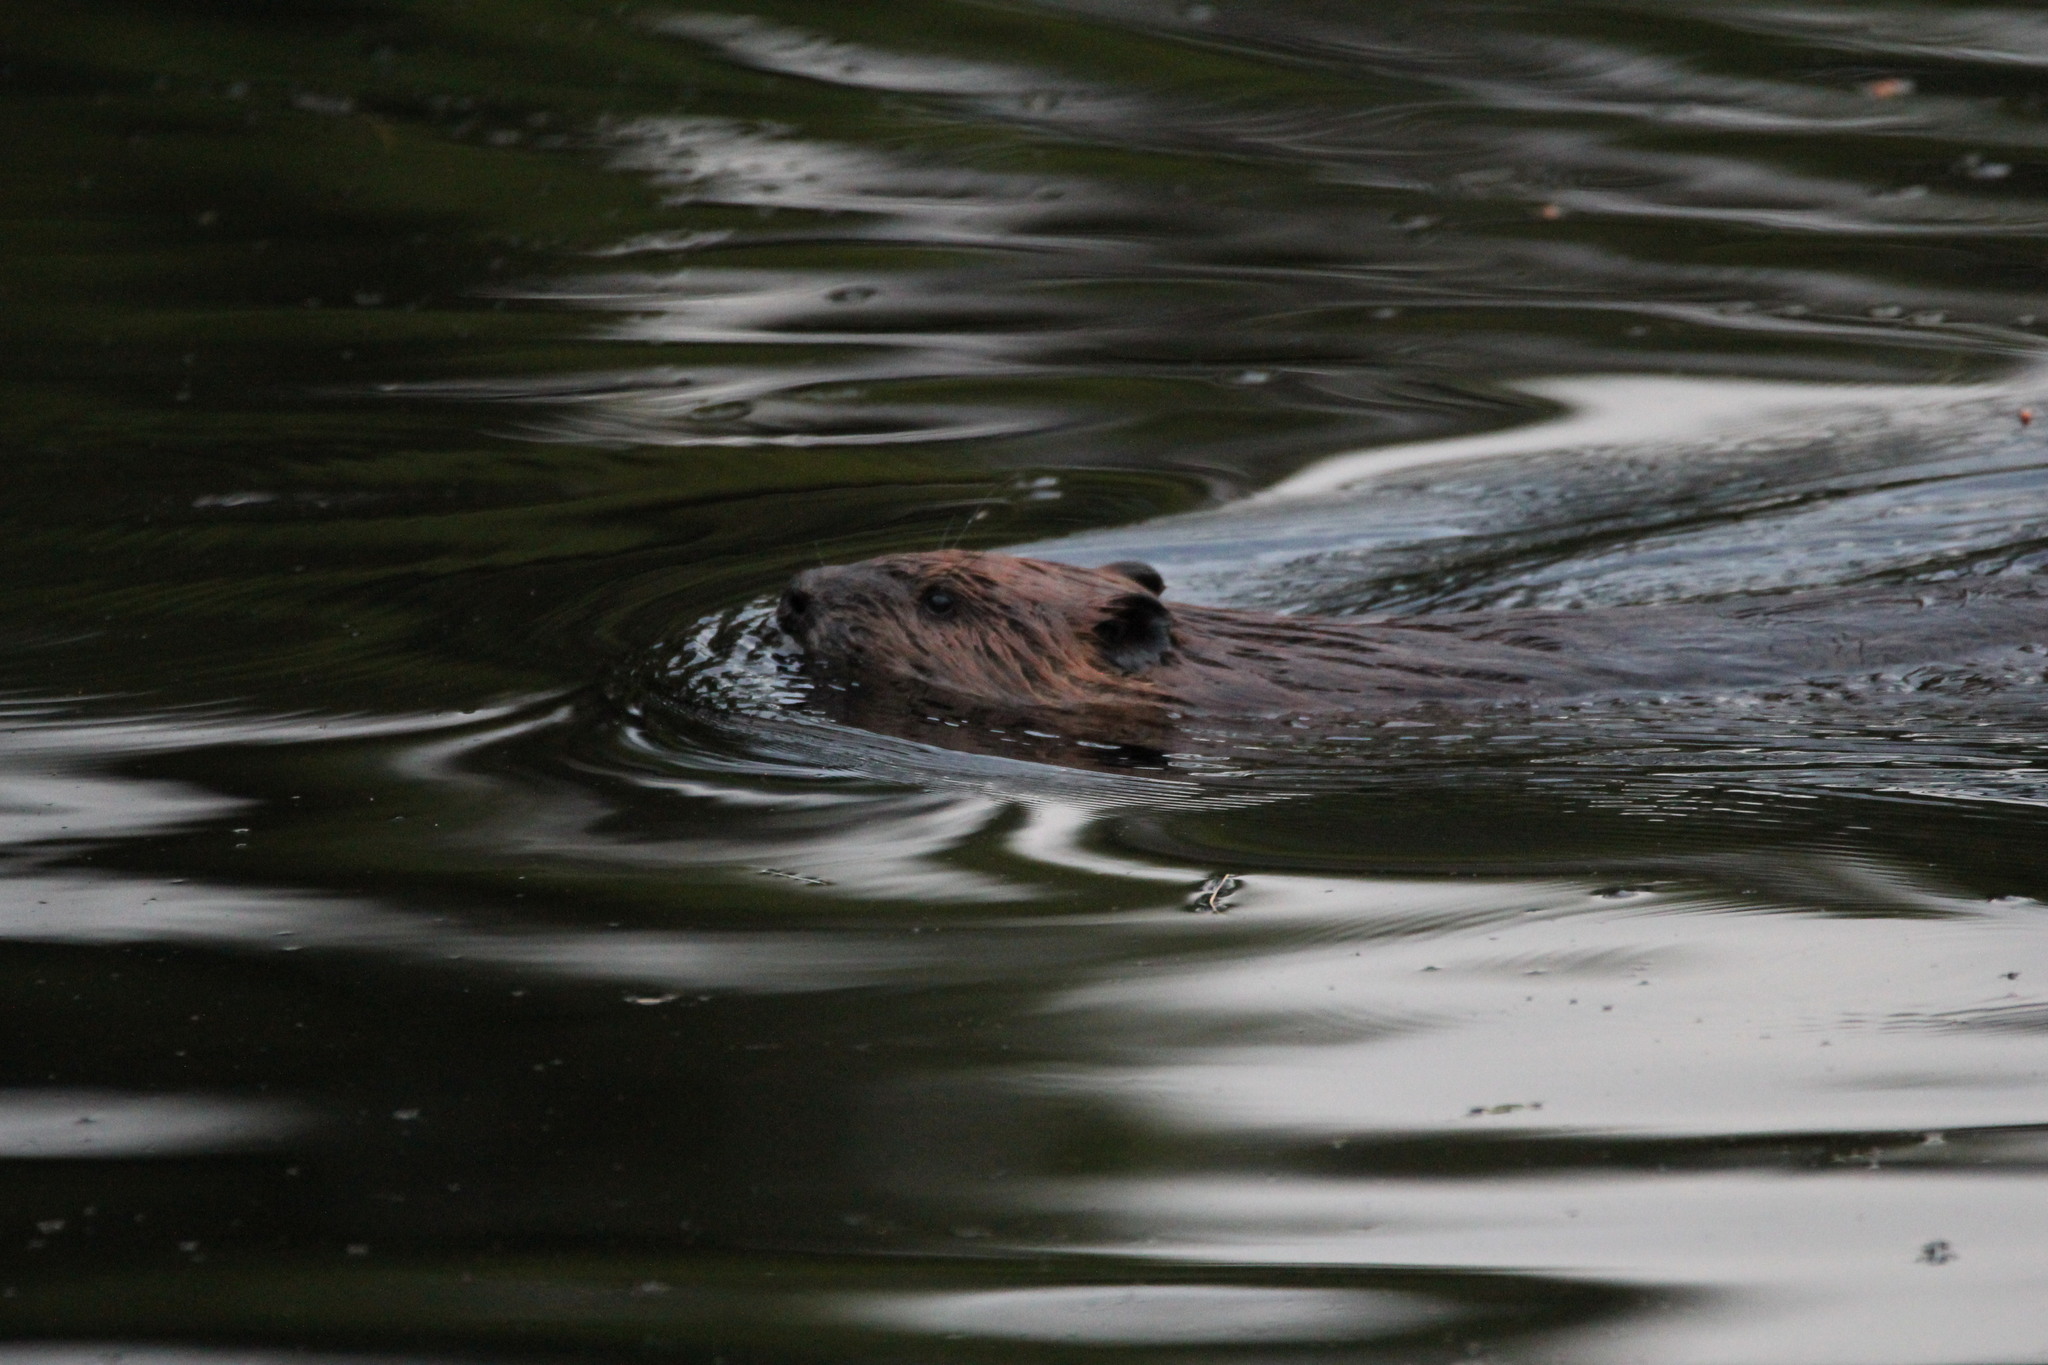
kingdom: Animalia
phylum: Chordata
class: Mammalia
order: Rodentia
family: Castoridae
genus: Castor
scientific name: Castor canadensis
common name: American beaver
